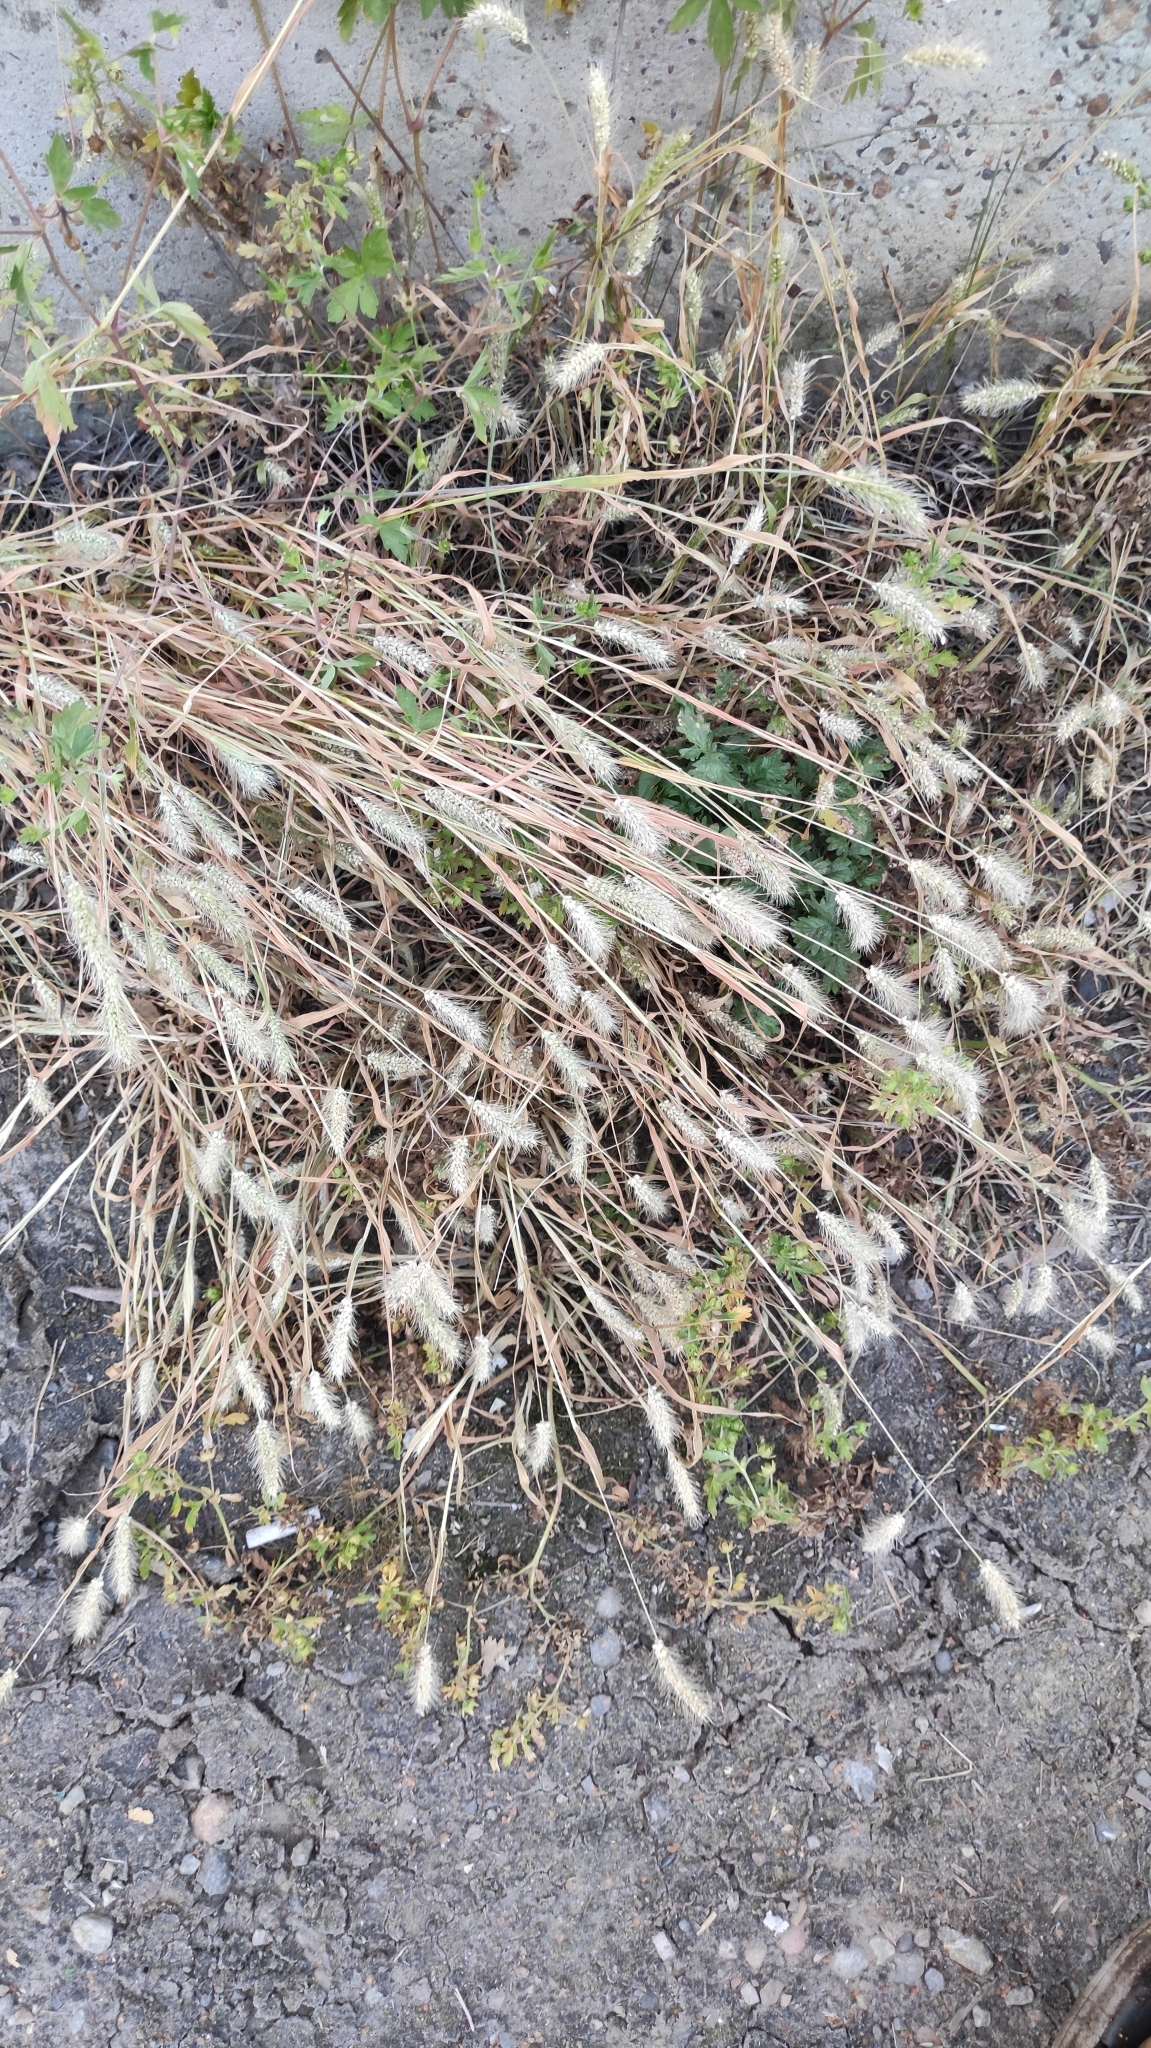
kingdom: Plantae
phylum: Tracheophyta
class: Liliopsida
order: Poales
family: Poaceae
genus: Setaria
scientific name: Setaria viridis
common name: Green bristlegrass
